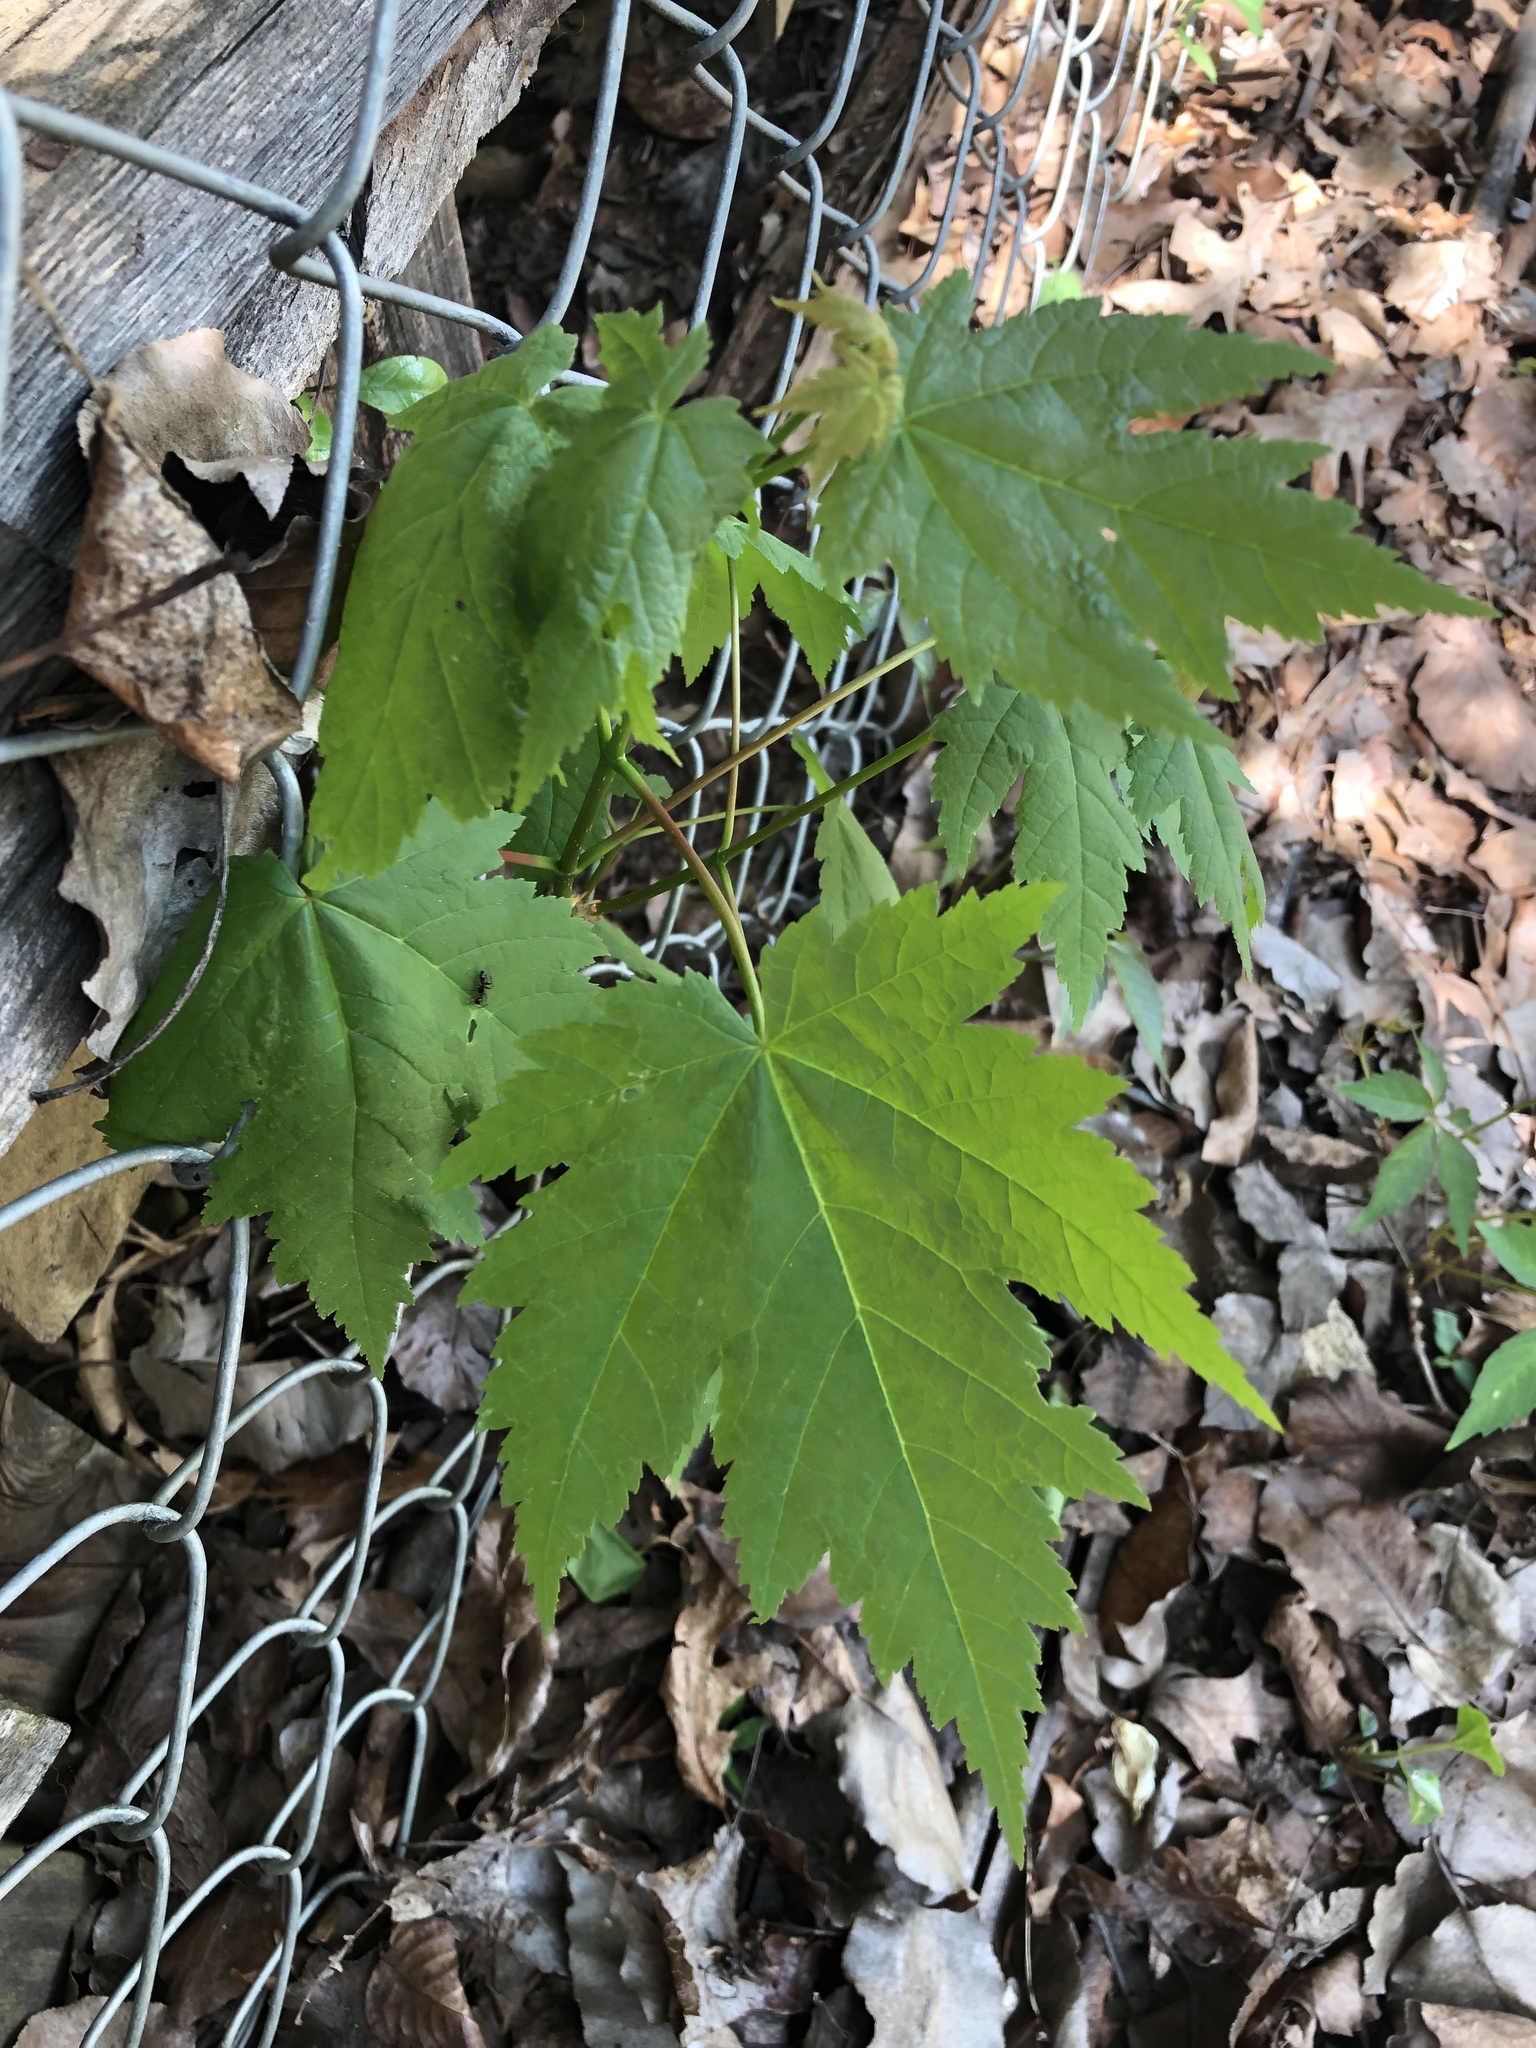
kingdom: Plantae
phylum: Tracheophyta
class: Magnoliopsida
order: Sapindales
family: Sapindaceae
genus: Acer
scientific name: Acer rubrum
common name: Red maple
